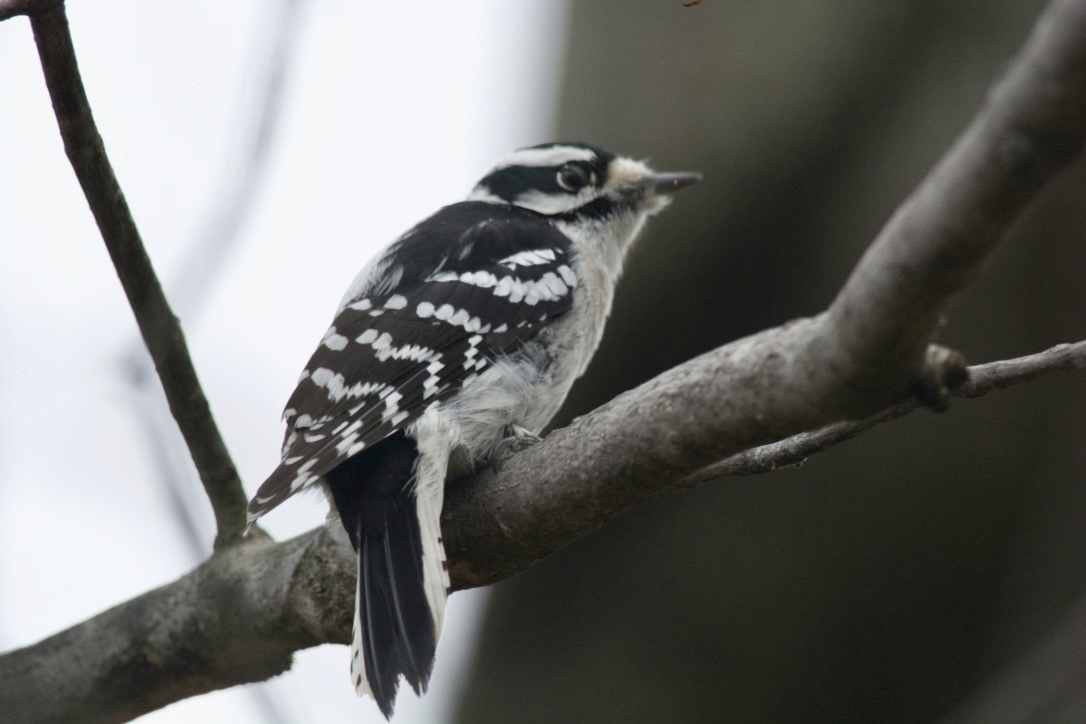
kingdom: Animalia
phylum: Chordata
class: Aves
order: Piciformes
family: Picidae
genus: Dryobates
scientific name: Dryobates pubescens
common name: Downy woodpecker
